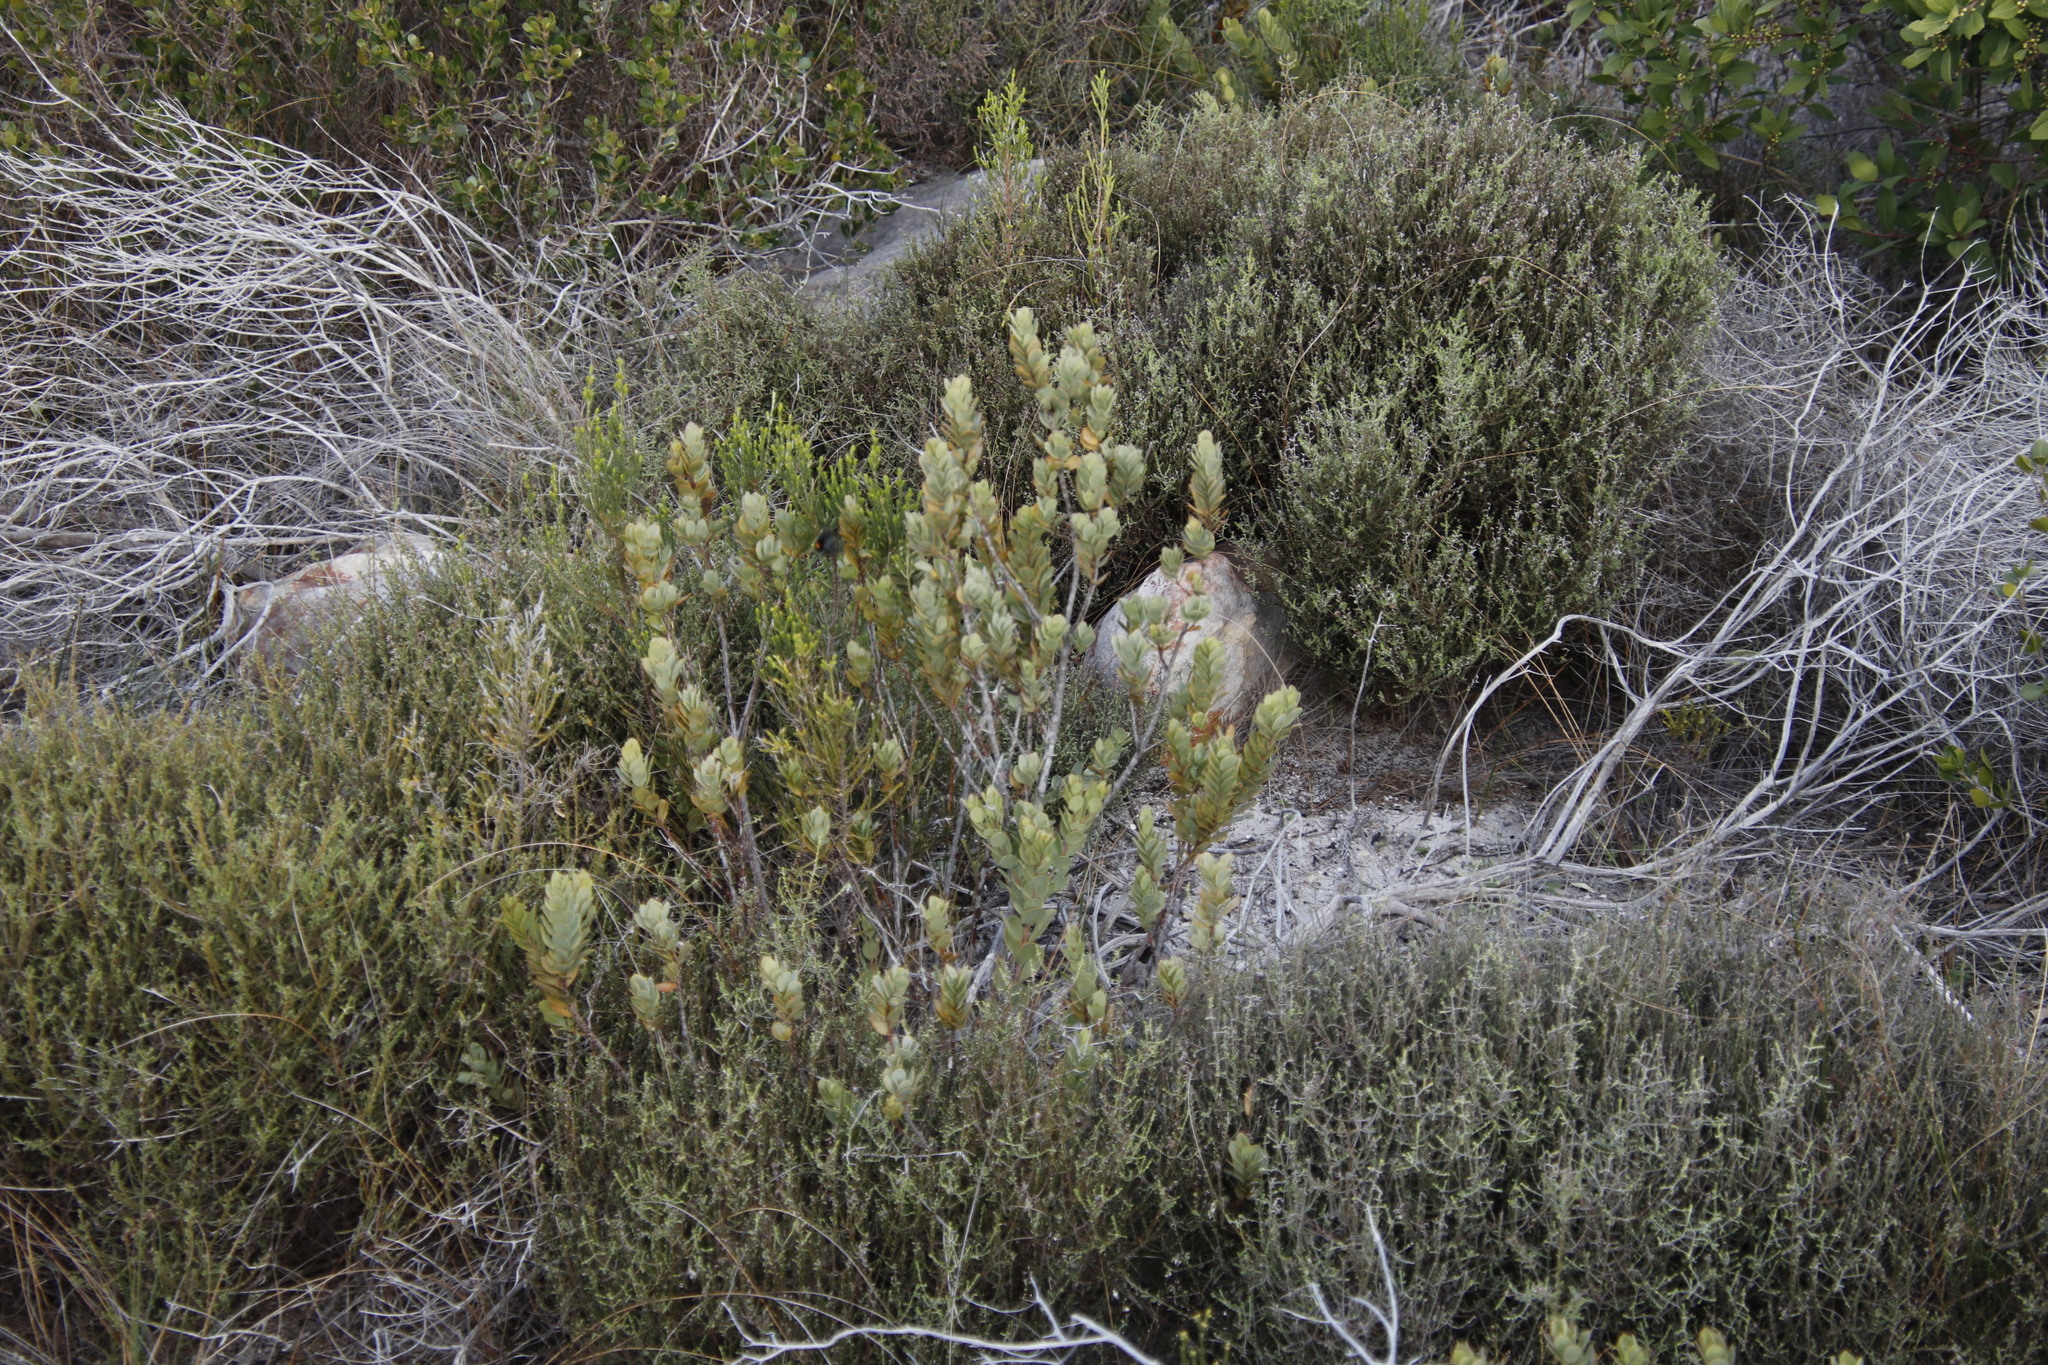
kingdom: Plantae
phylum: Tracheophyta
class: Magnoliopsida
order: Santalales
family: Santalaceae
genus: Osyris
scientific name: Osyris compressa
